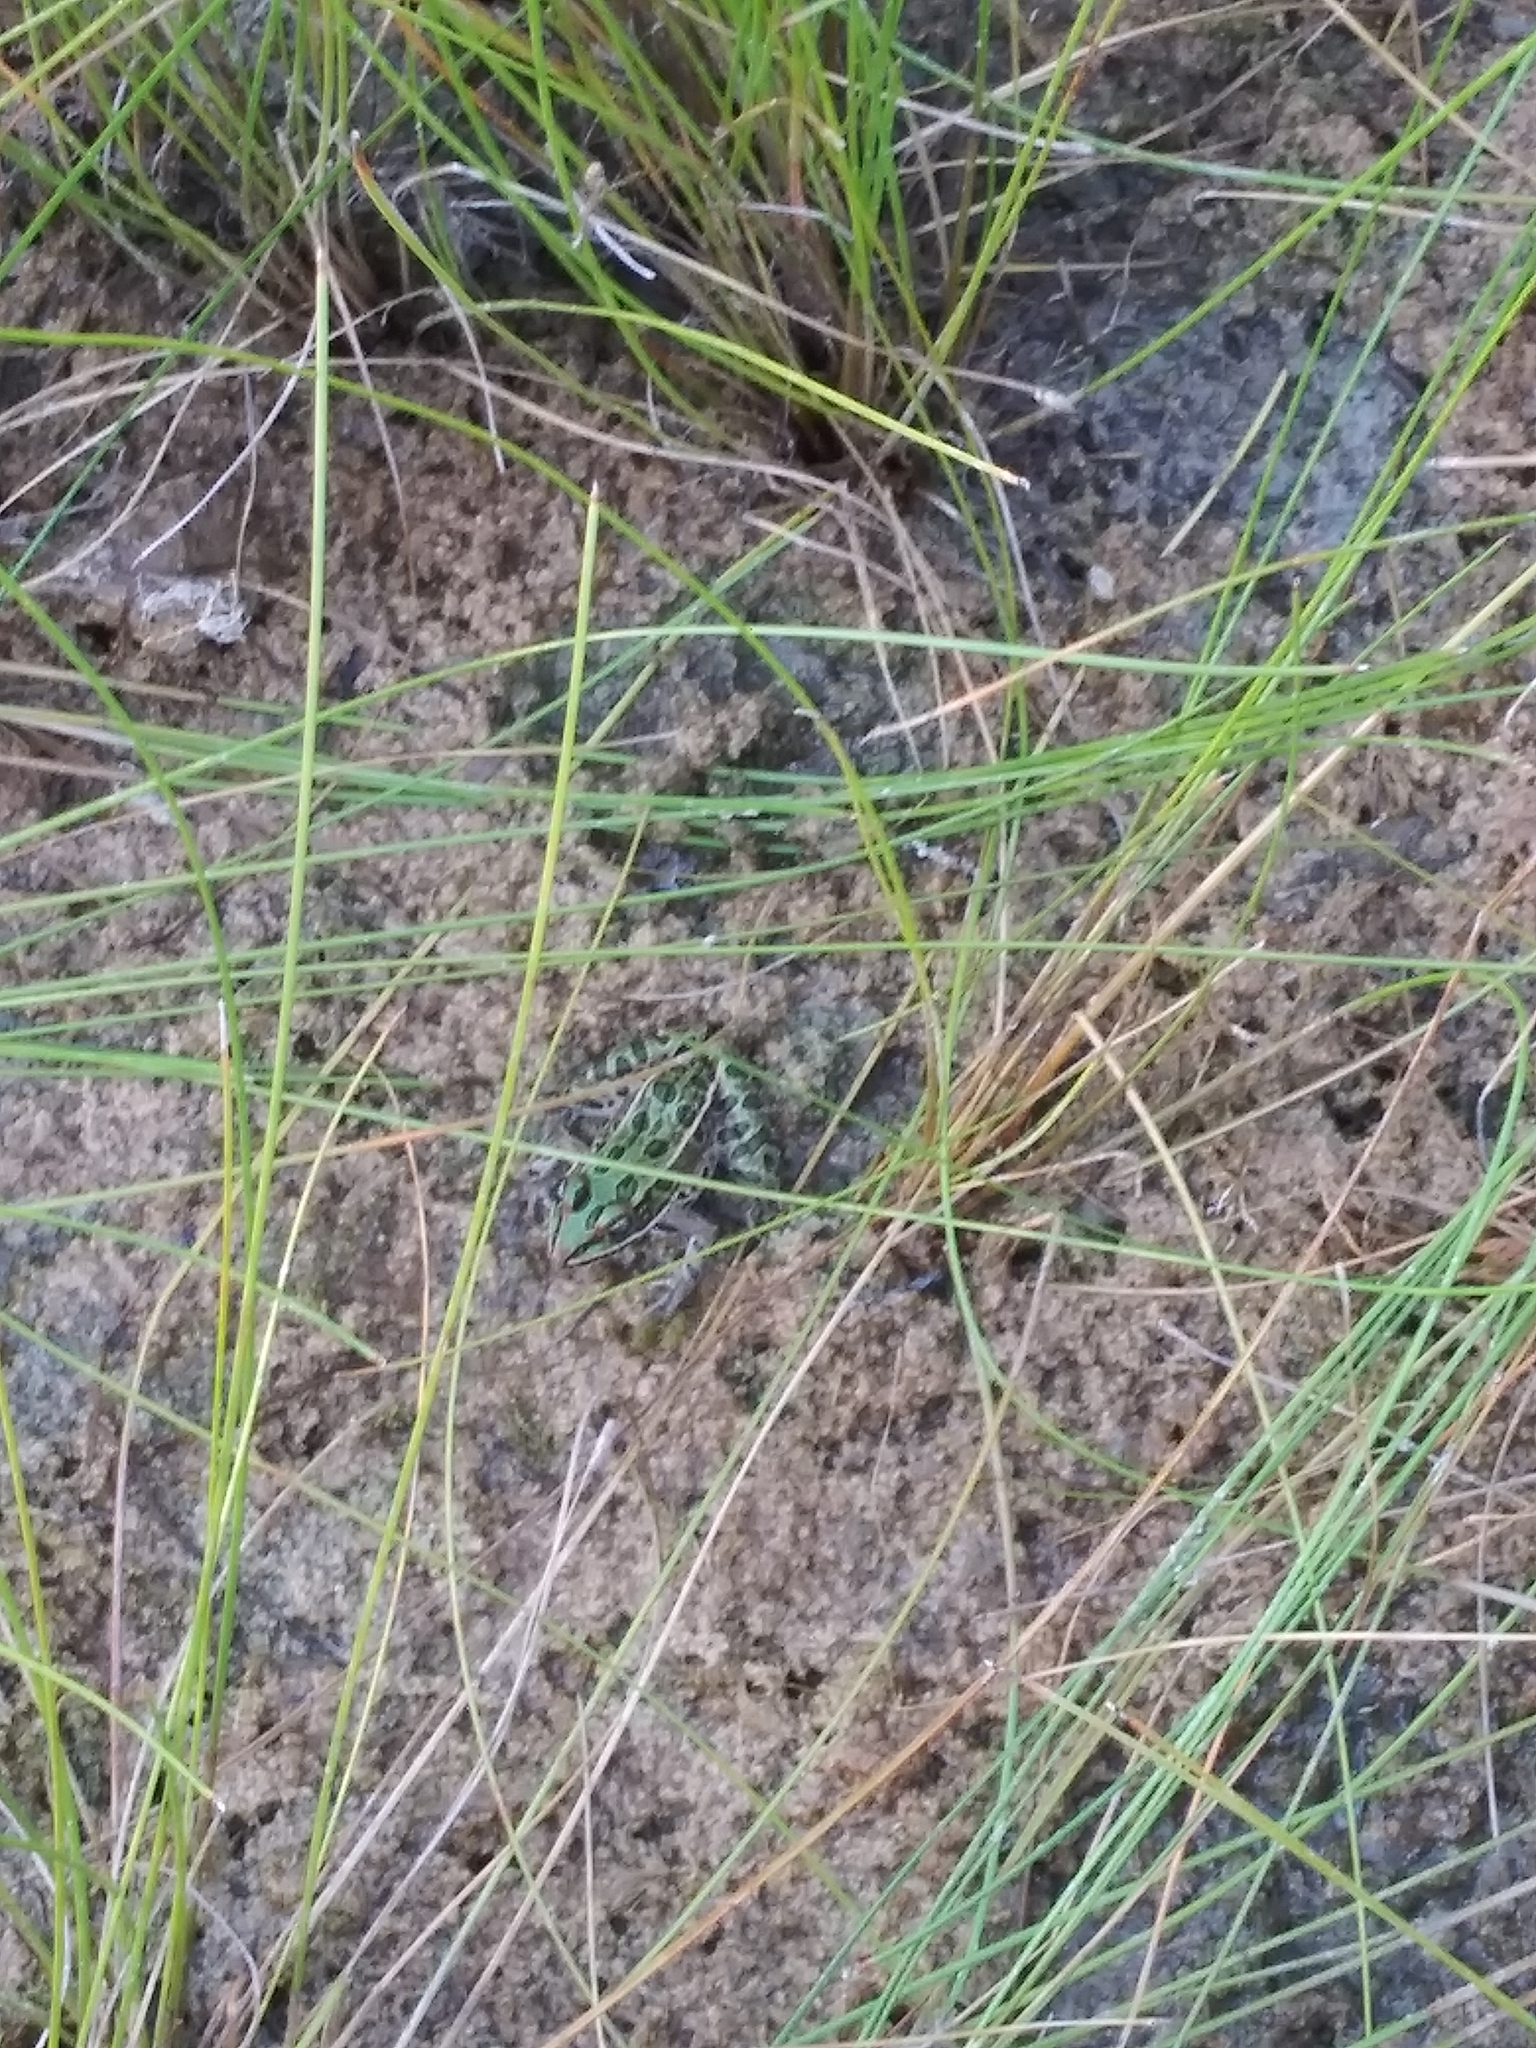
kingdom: Animalia
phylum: Chordata
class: Amphibia
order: Anura
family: Ranidae
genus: Lithobates
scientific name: Lithobates pipiens
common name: Northern leopard frog
